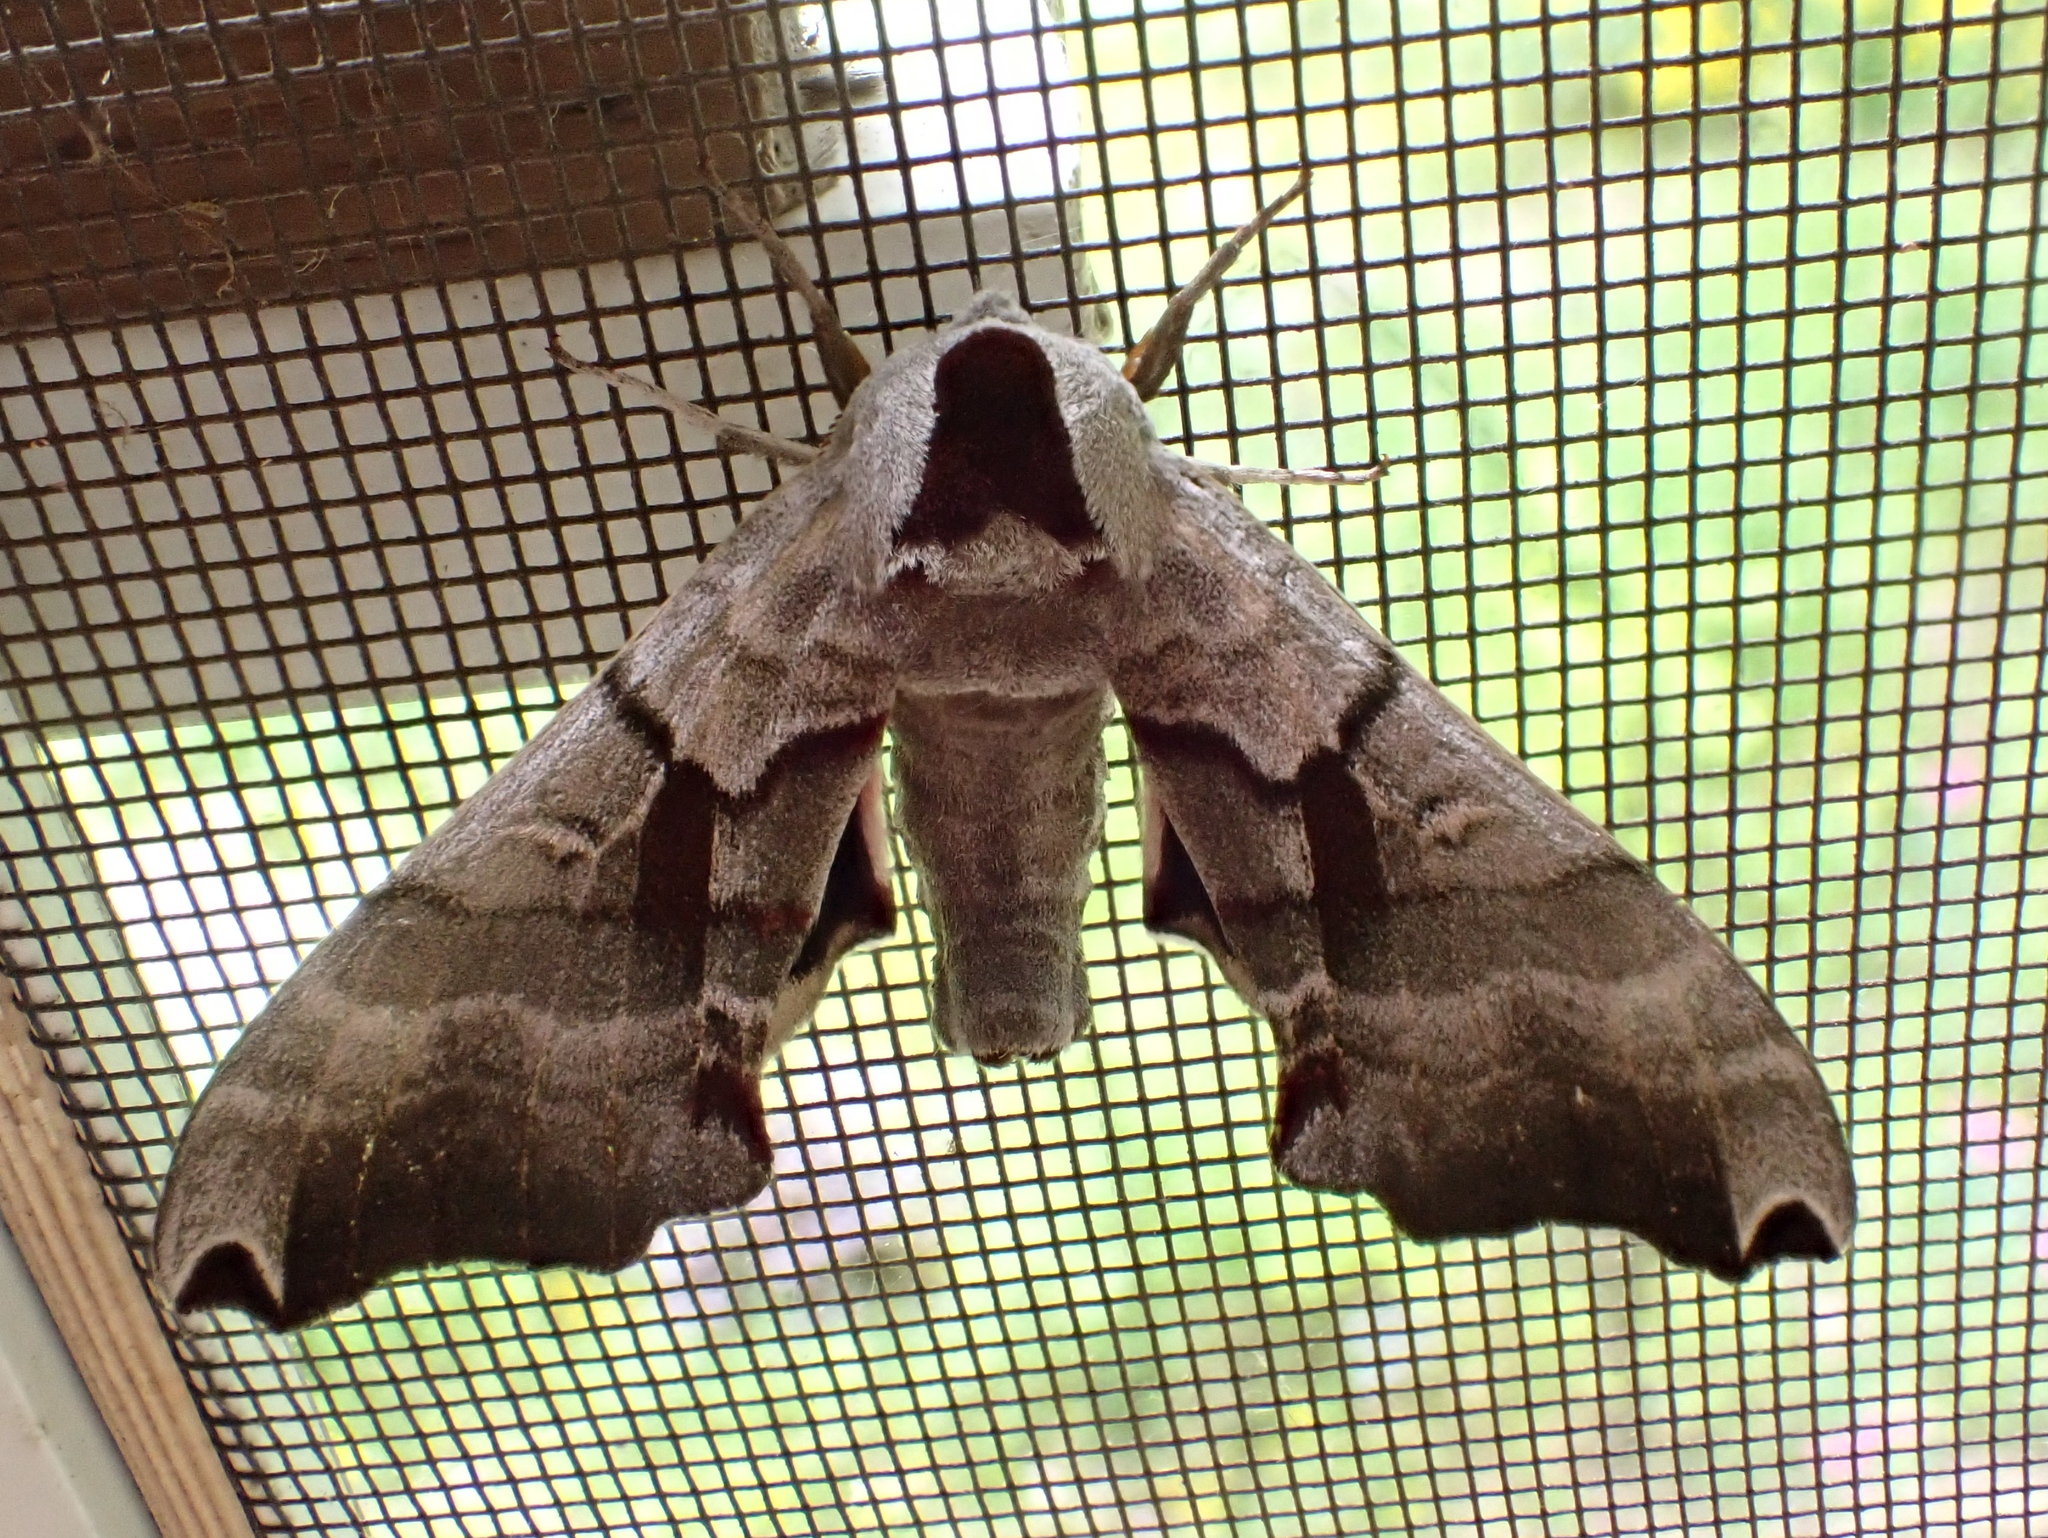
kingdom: Animalia
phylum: Arthropoda
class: Insecta
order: Lepidoptera
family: Sphingidae
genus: Smerinthus
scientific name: Smerinthus jamaicensis
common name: Twin spotted sphinx
